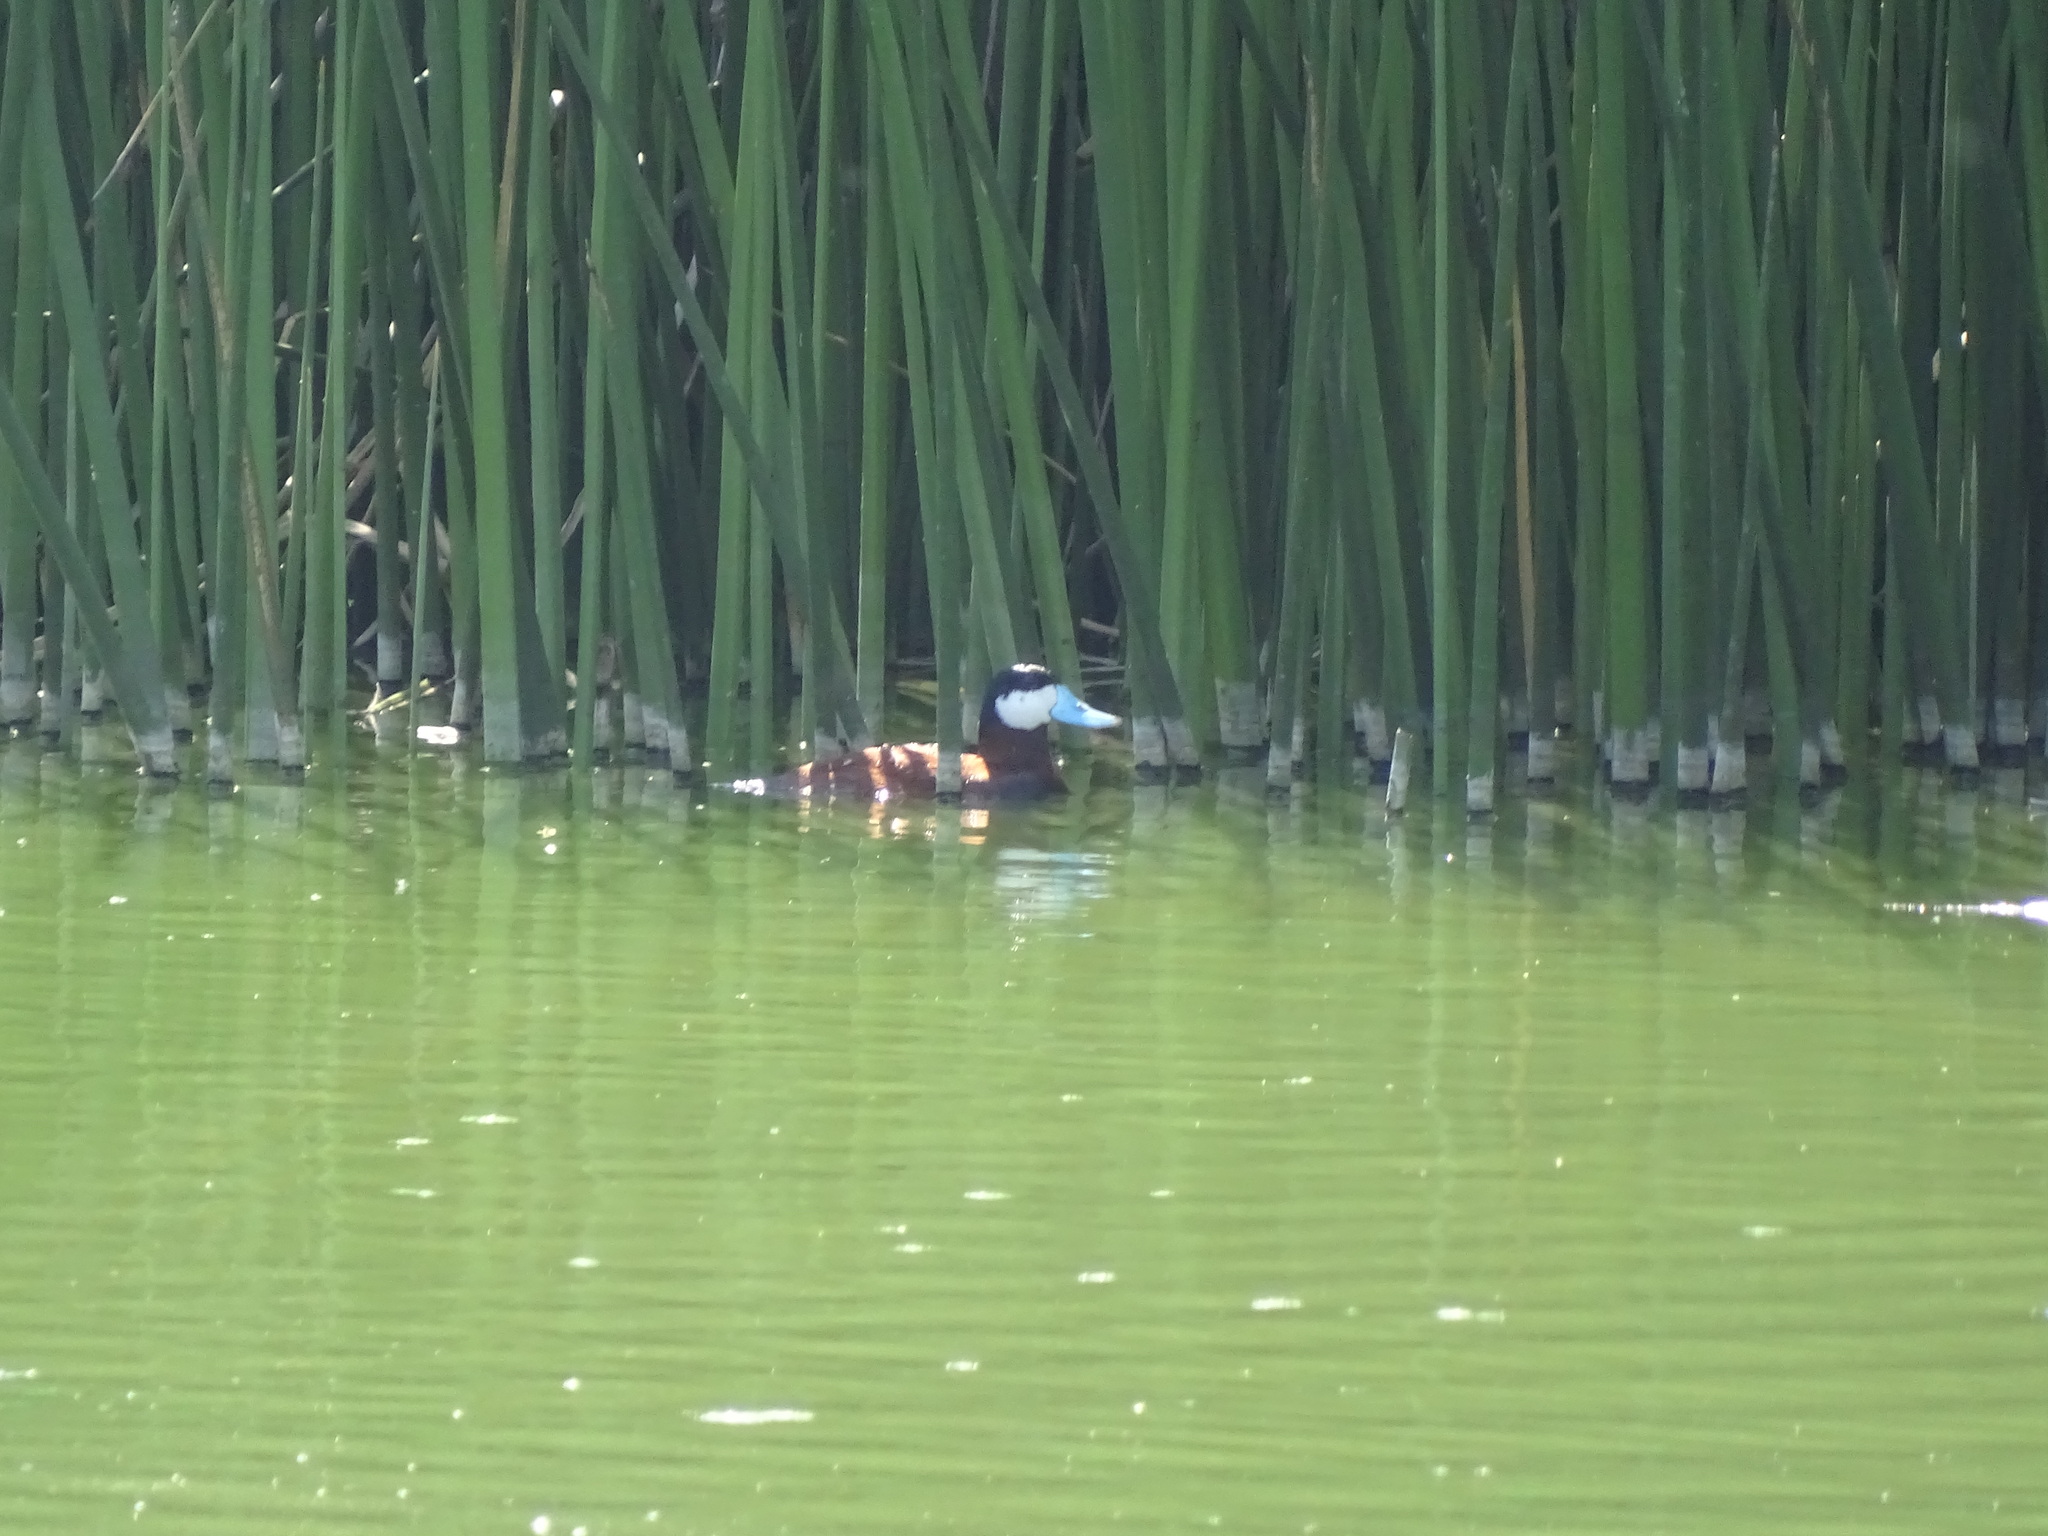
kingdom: Animalia
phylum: Chordata
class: Aves
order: Anseriformes
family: Anatidae
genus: Oxyura
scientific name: Oxyura jamaicensis
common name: Ruddy duck
